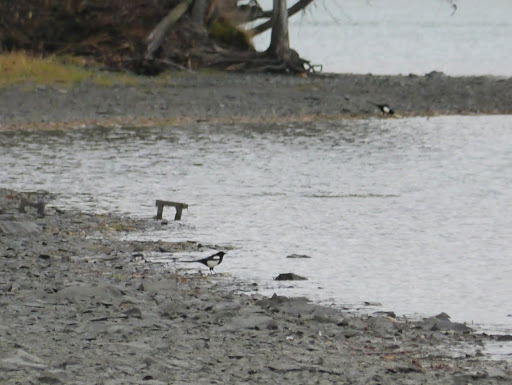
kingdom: Animalia
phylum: Chordata
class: Aves
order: Passeriformes
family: Corvidae
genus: Pica
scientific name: Pica hudsonia
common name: Black-billed magpie
